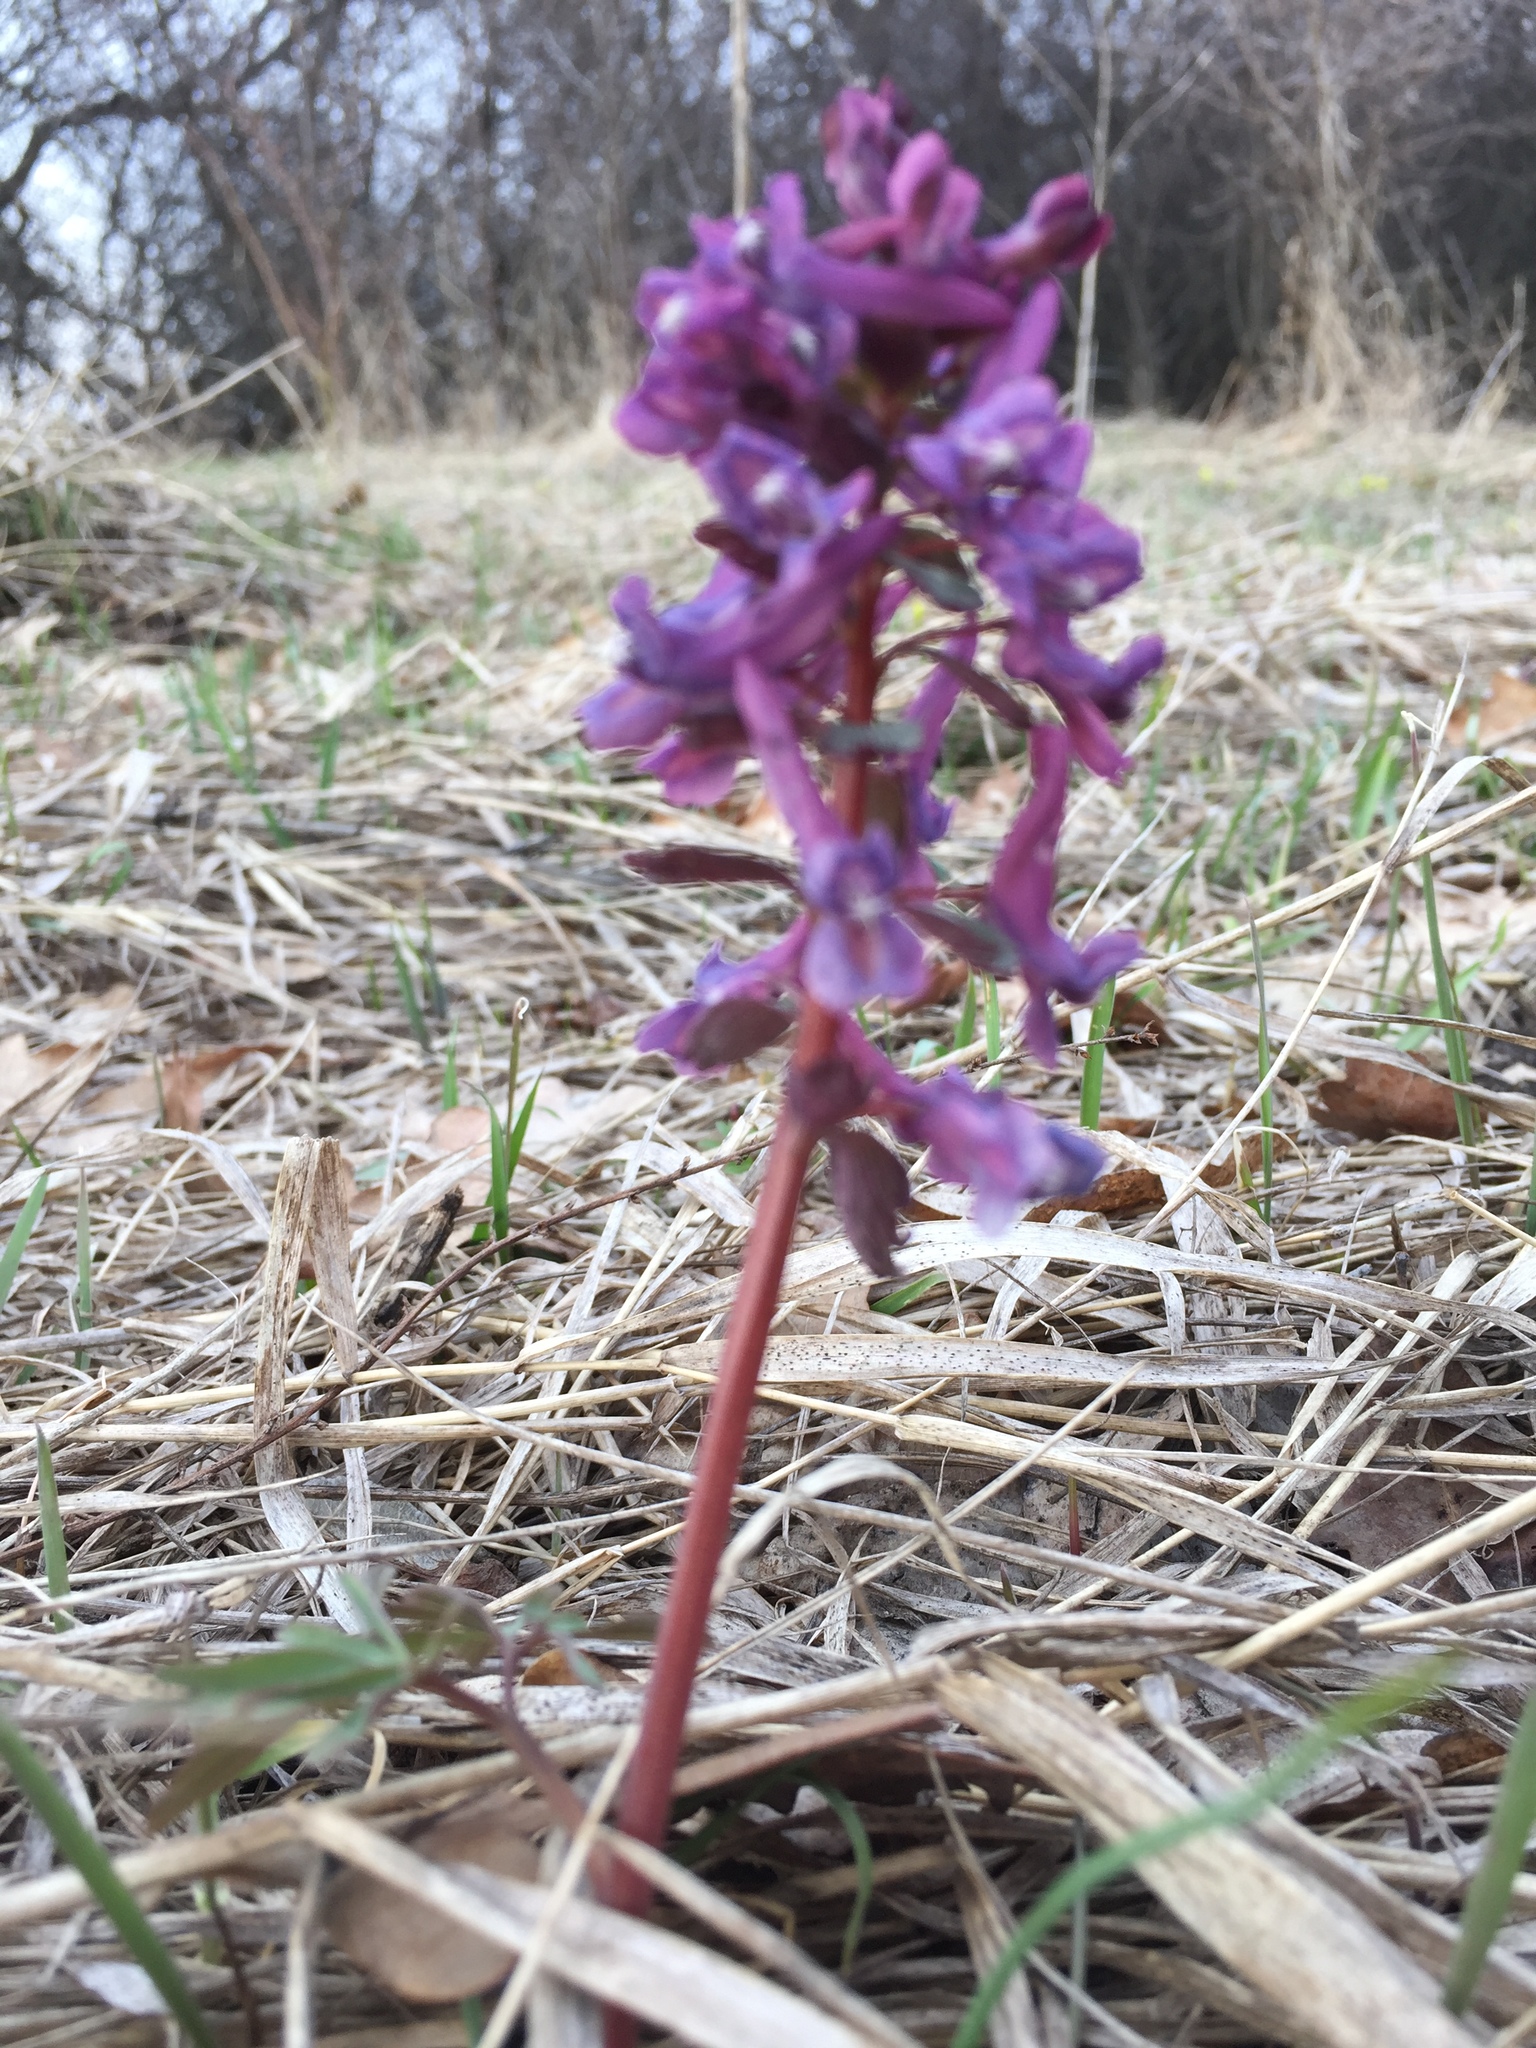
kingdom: Plantae
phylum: Tracheophyta
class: Magnoliopsida
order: Ranunculales
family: Papaveraceae
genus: Corydalis
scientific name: Corydalis solida
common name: Bird-in-a-bush
